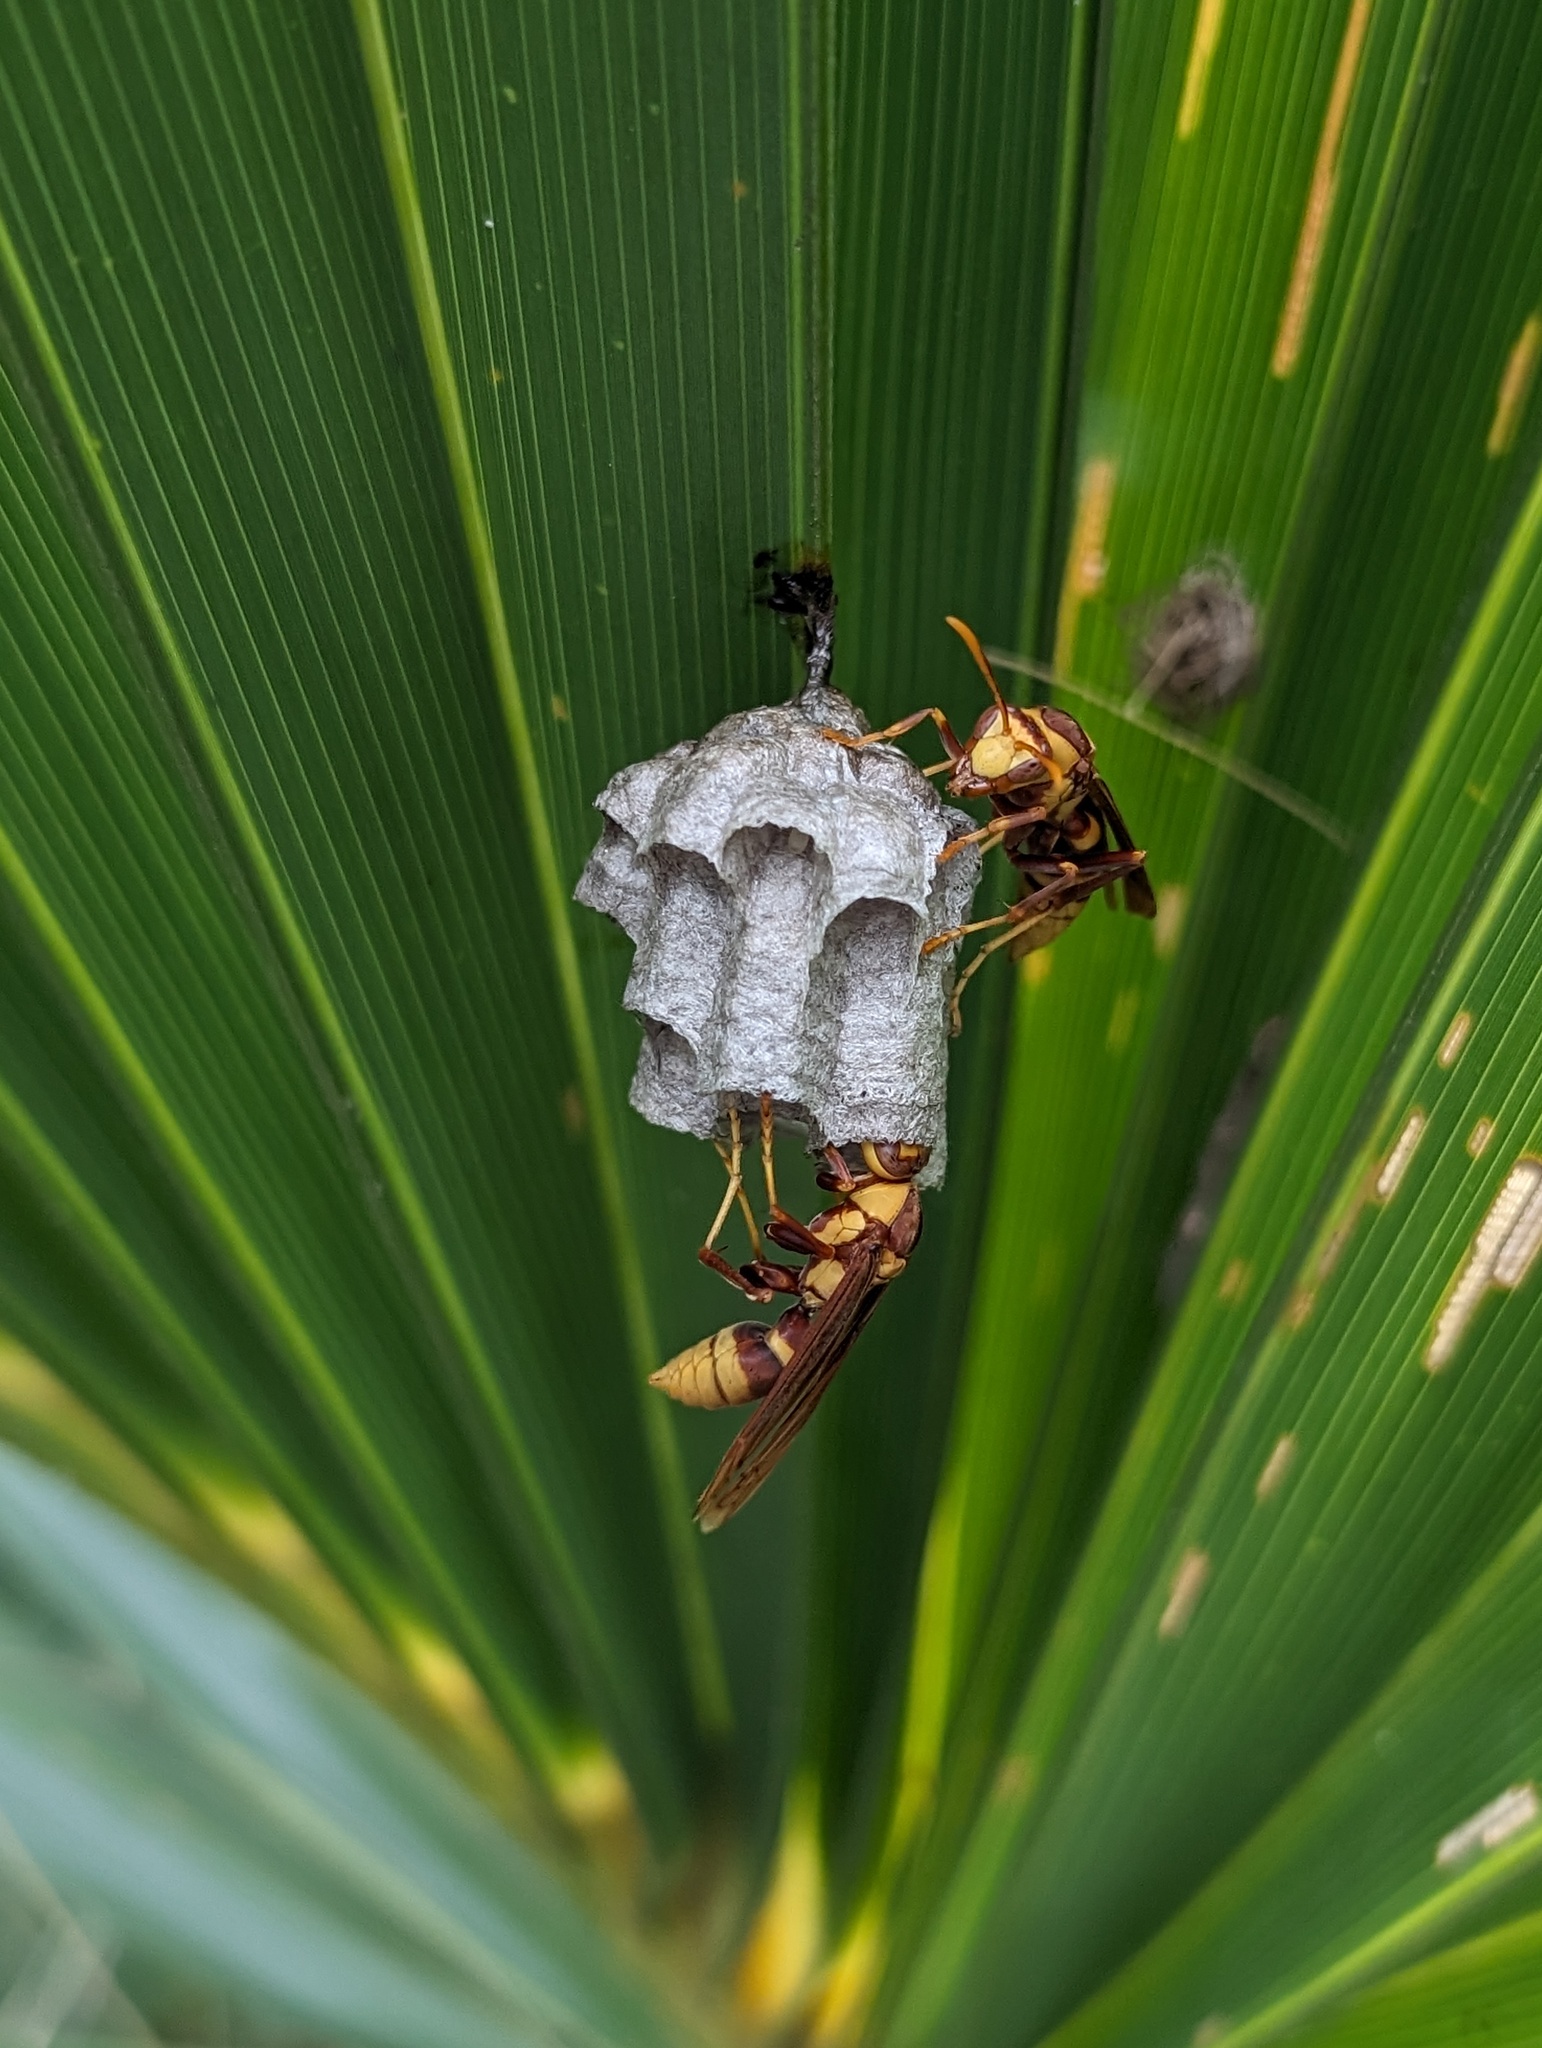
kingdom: Animalia
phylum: Arthropoda
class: Insecta
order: Hymenoptera
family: Eumenidae
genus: Polistes
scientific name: Polistes major
